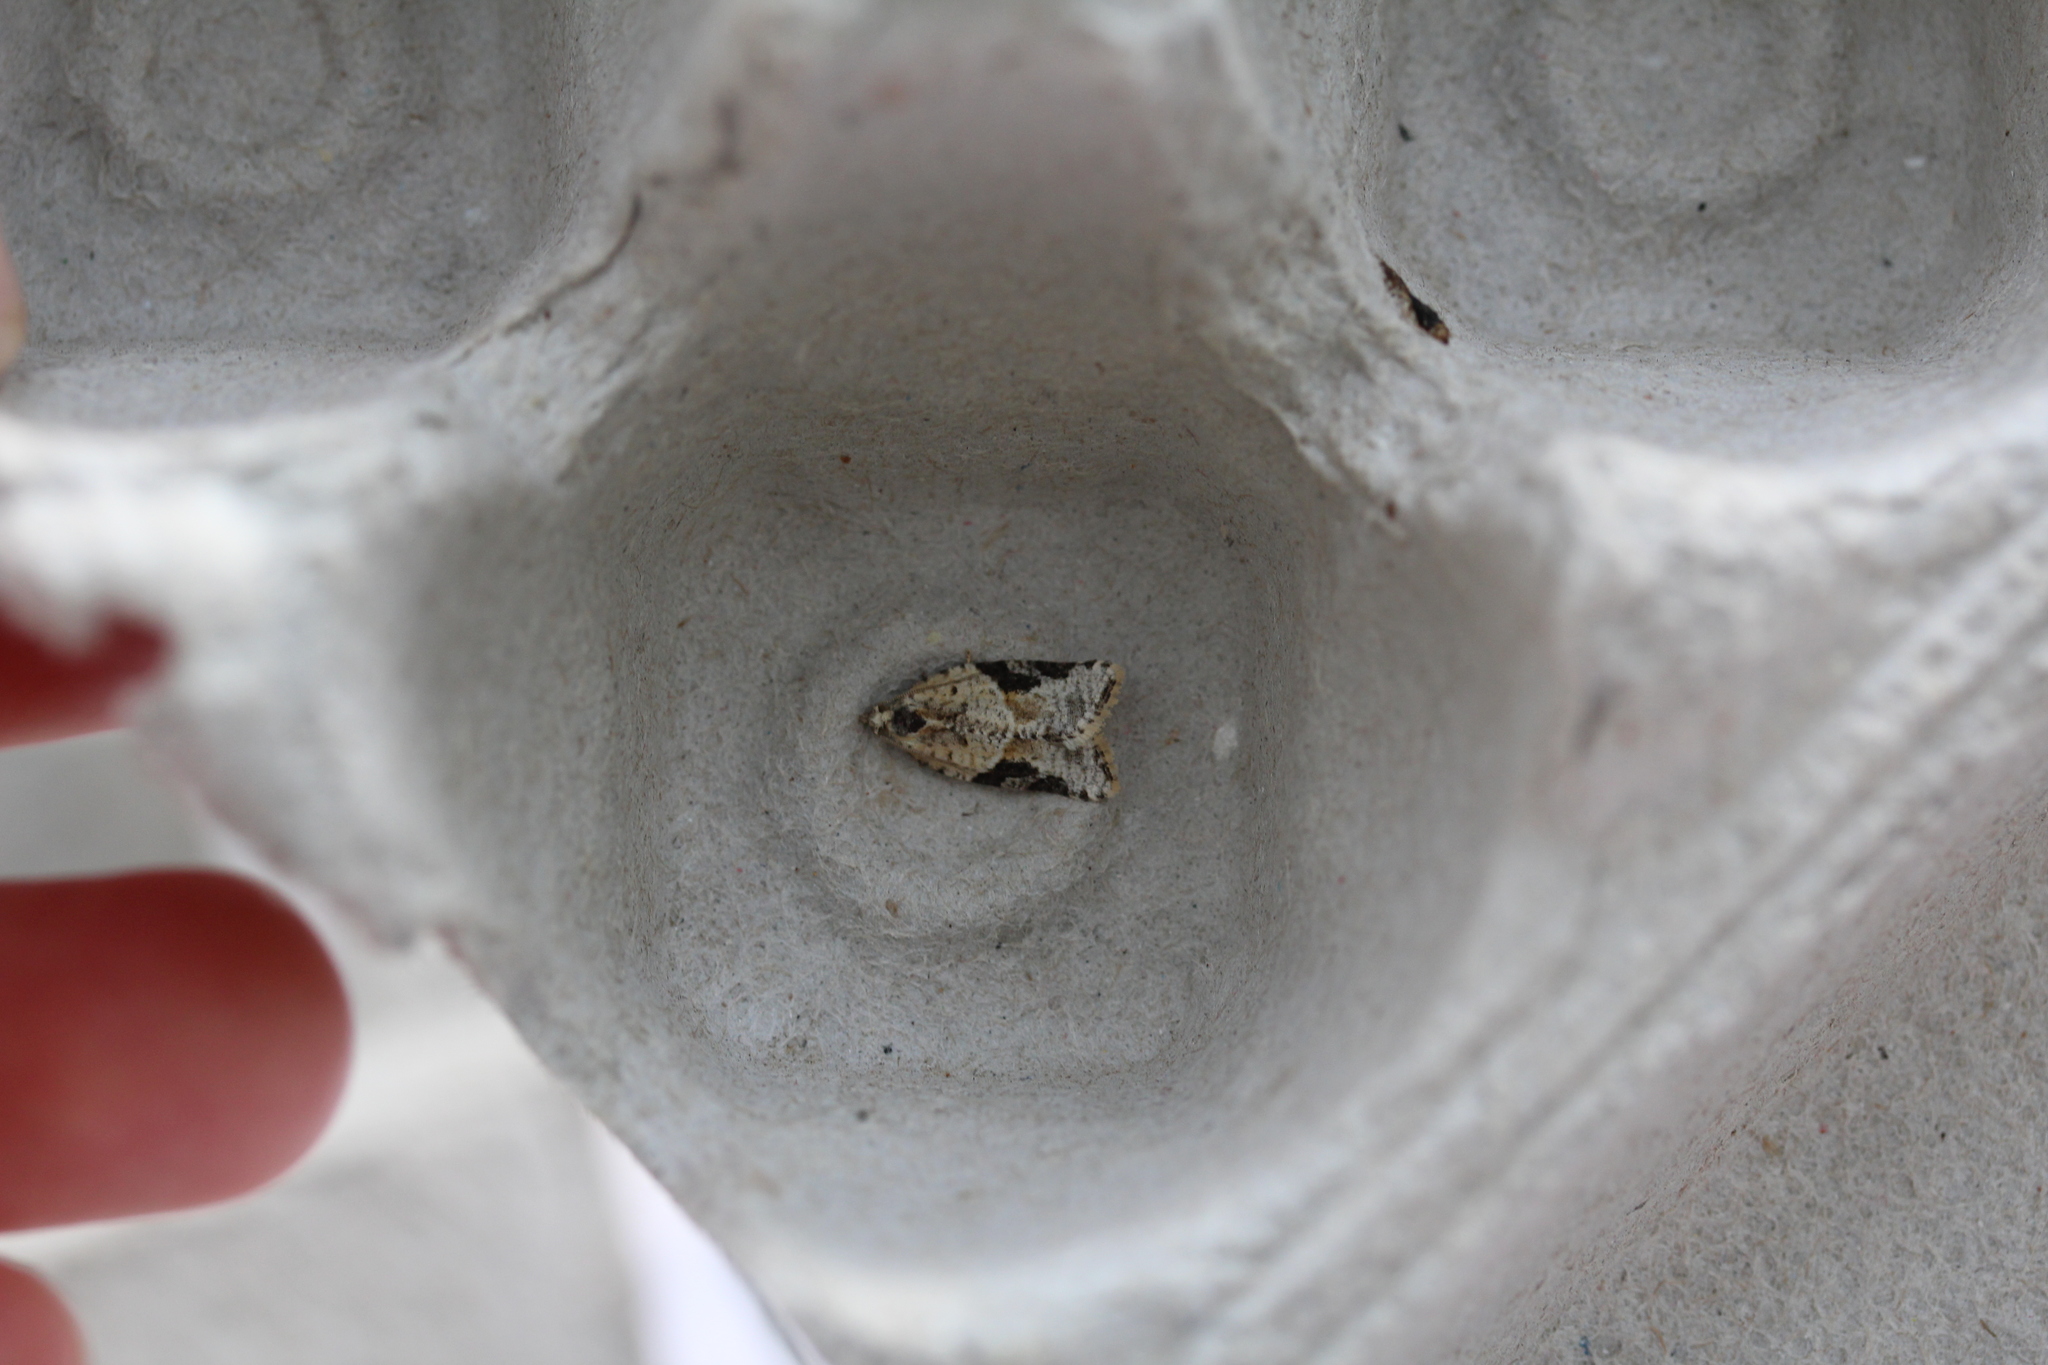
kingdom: Animalia
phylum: Arthropoda
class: Insecta
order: Lepidoptera
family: Tortricidae
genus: Argyrotaenia
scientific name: Argyrotaenia mariana
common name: Gray-banded leafroller moth
